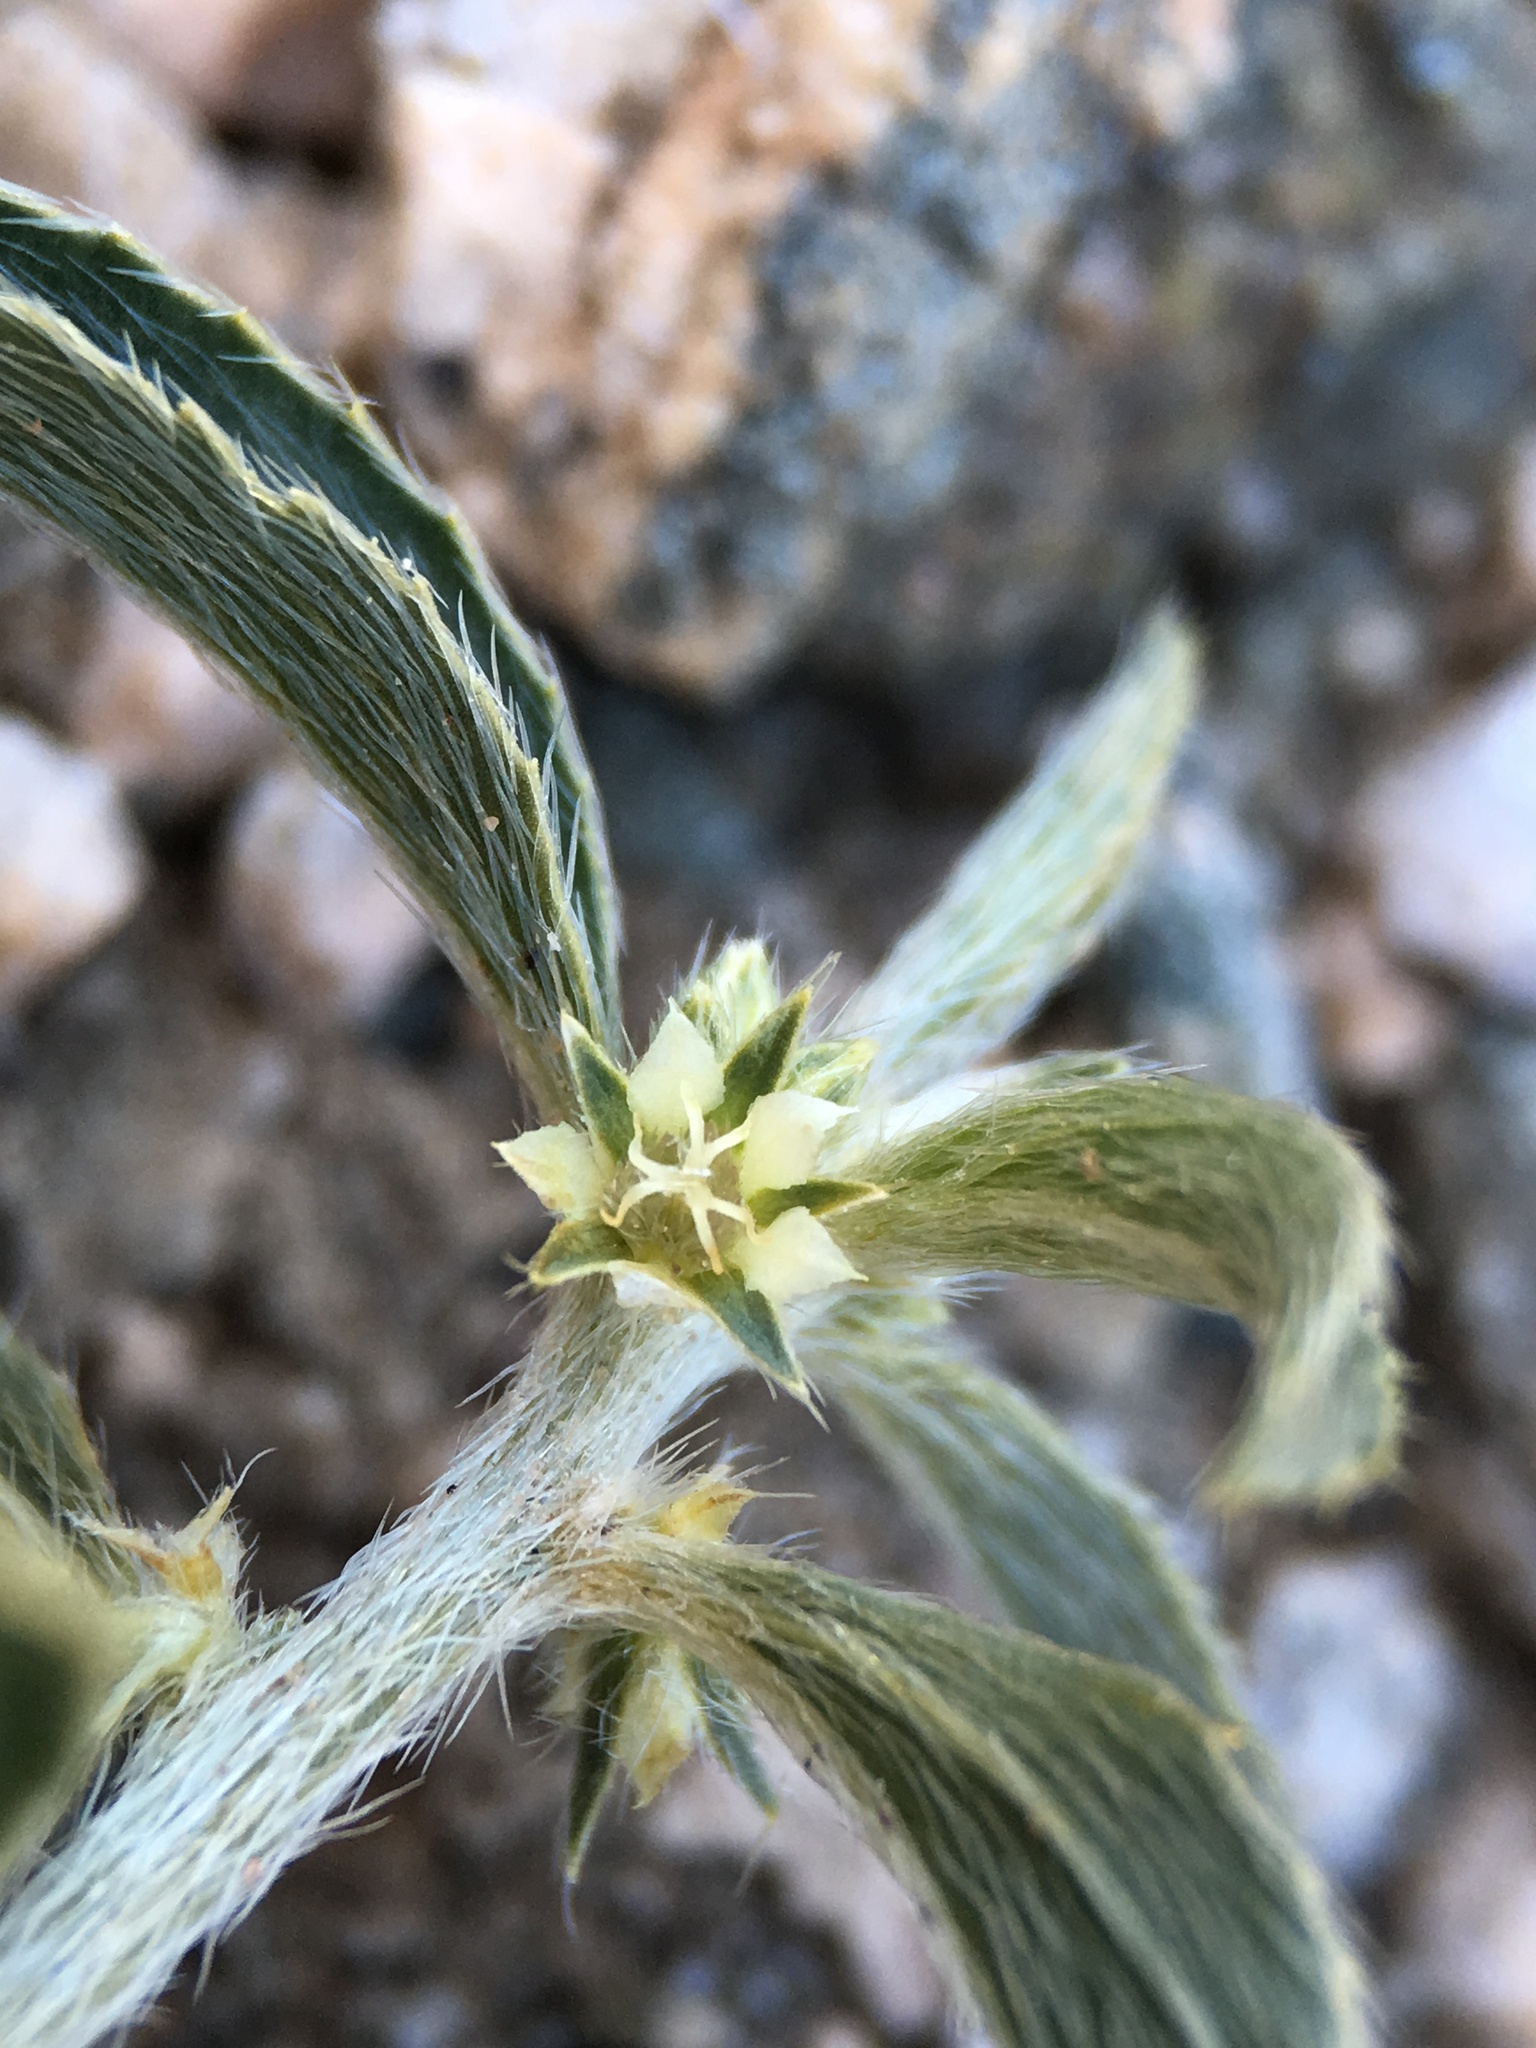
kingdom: Plantae
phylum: Tracheophyta
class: Magnoliopsida
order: Malpighiales
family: Euphorbiaceae
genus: Ditaxis
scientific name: Ditaxis serrata
